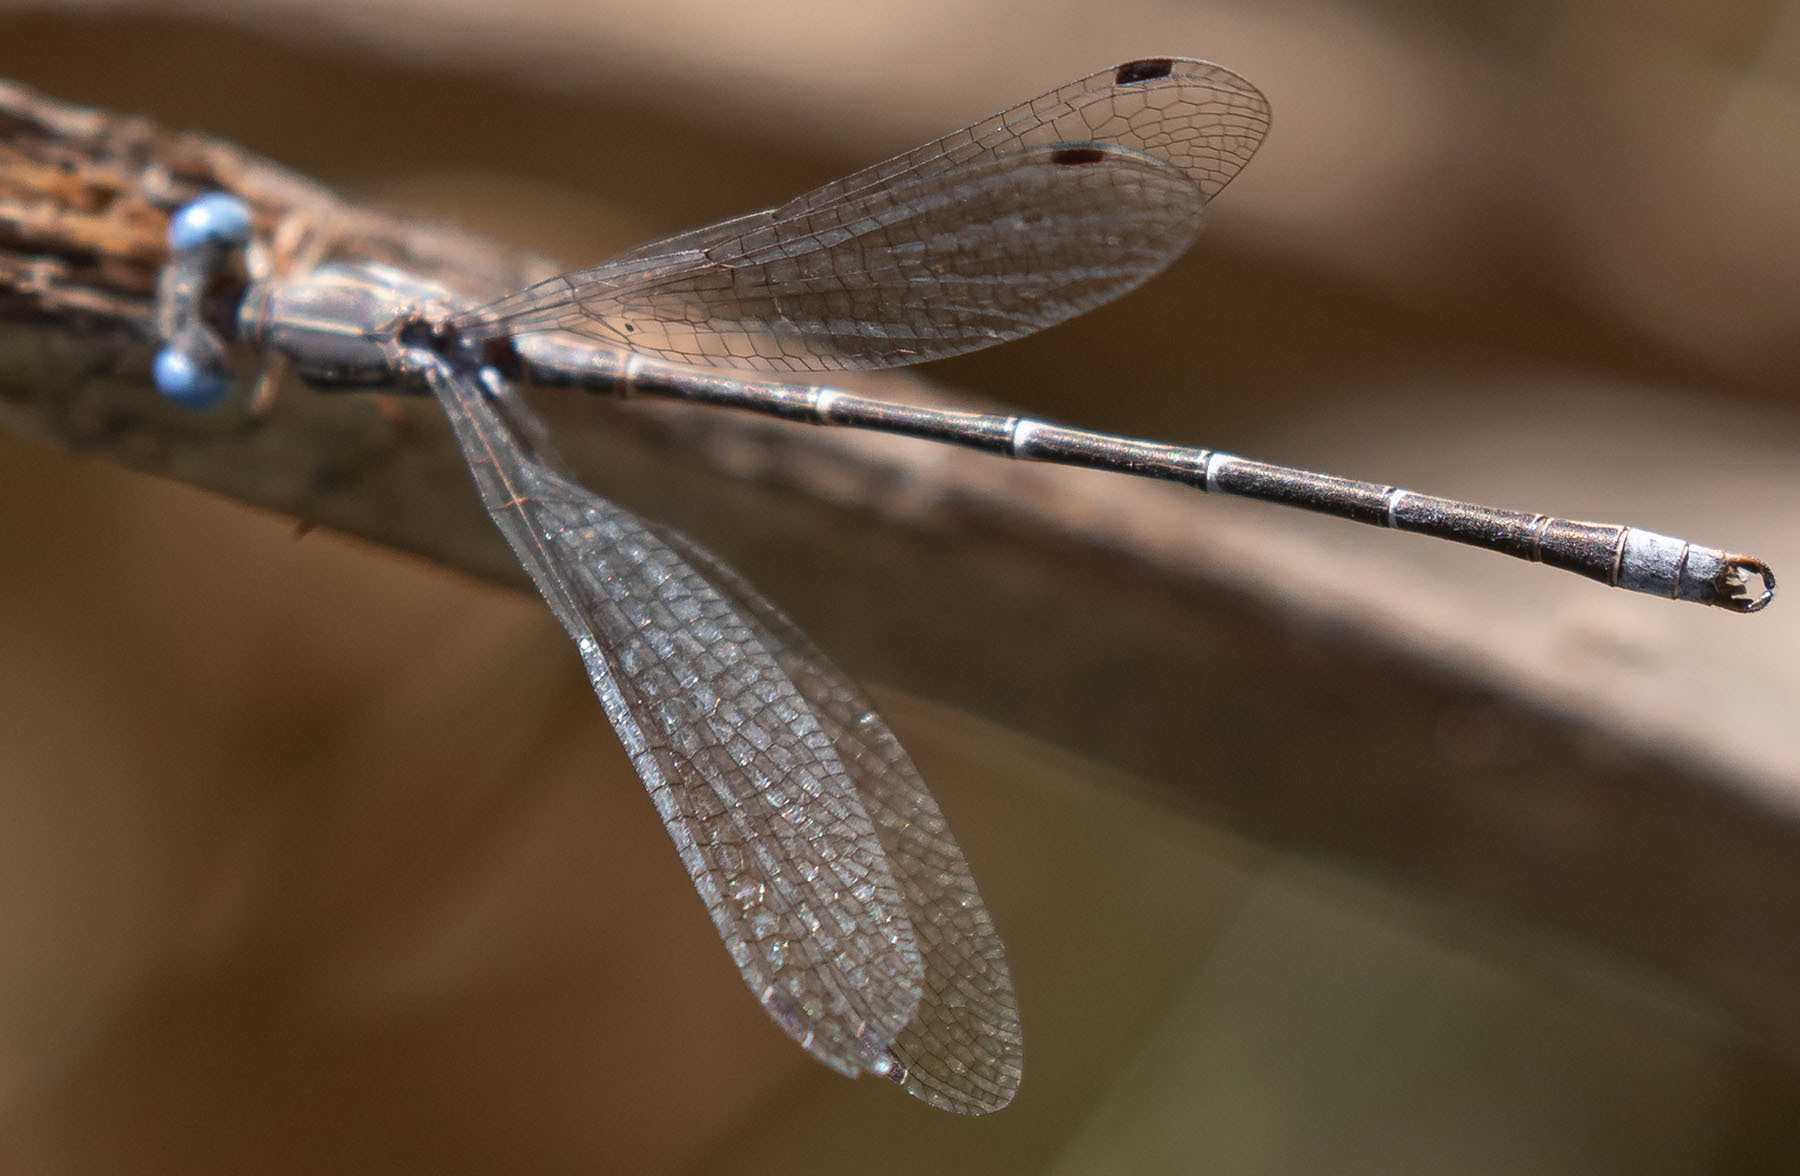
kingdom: Animalia
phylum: Arthropoda
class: Insecta
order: Odonata
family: Lestidae
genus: Lestes
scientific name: Lestes congener
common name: Spotted spreadwing
